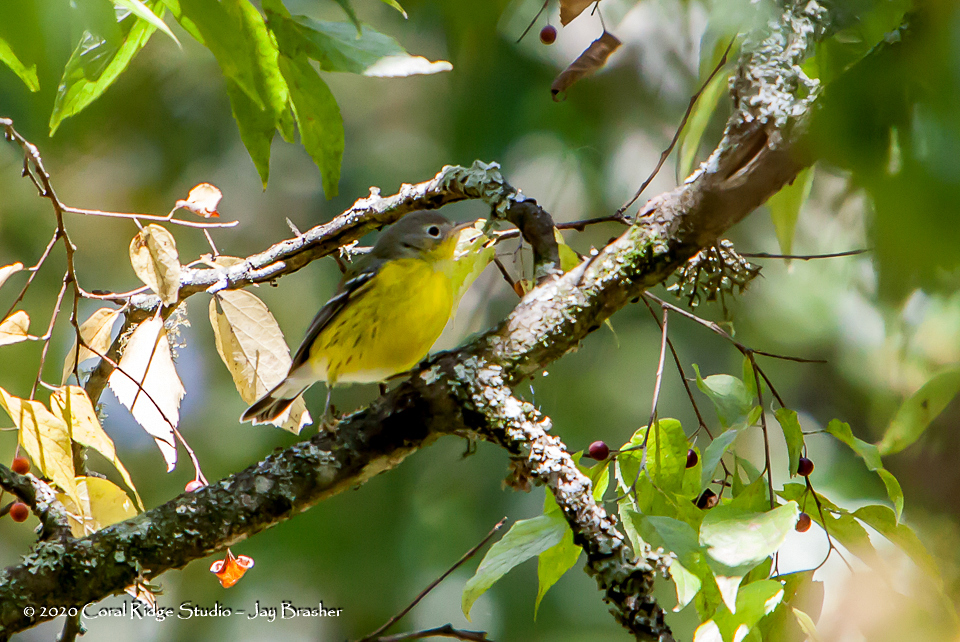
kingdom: Animalia
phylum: Chordata
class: Aves
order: Passeriformes
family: Parulidae
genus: Setophaga
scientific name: Setophaga magnolia
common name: Magnolia warbler
